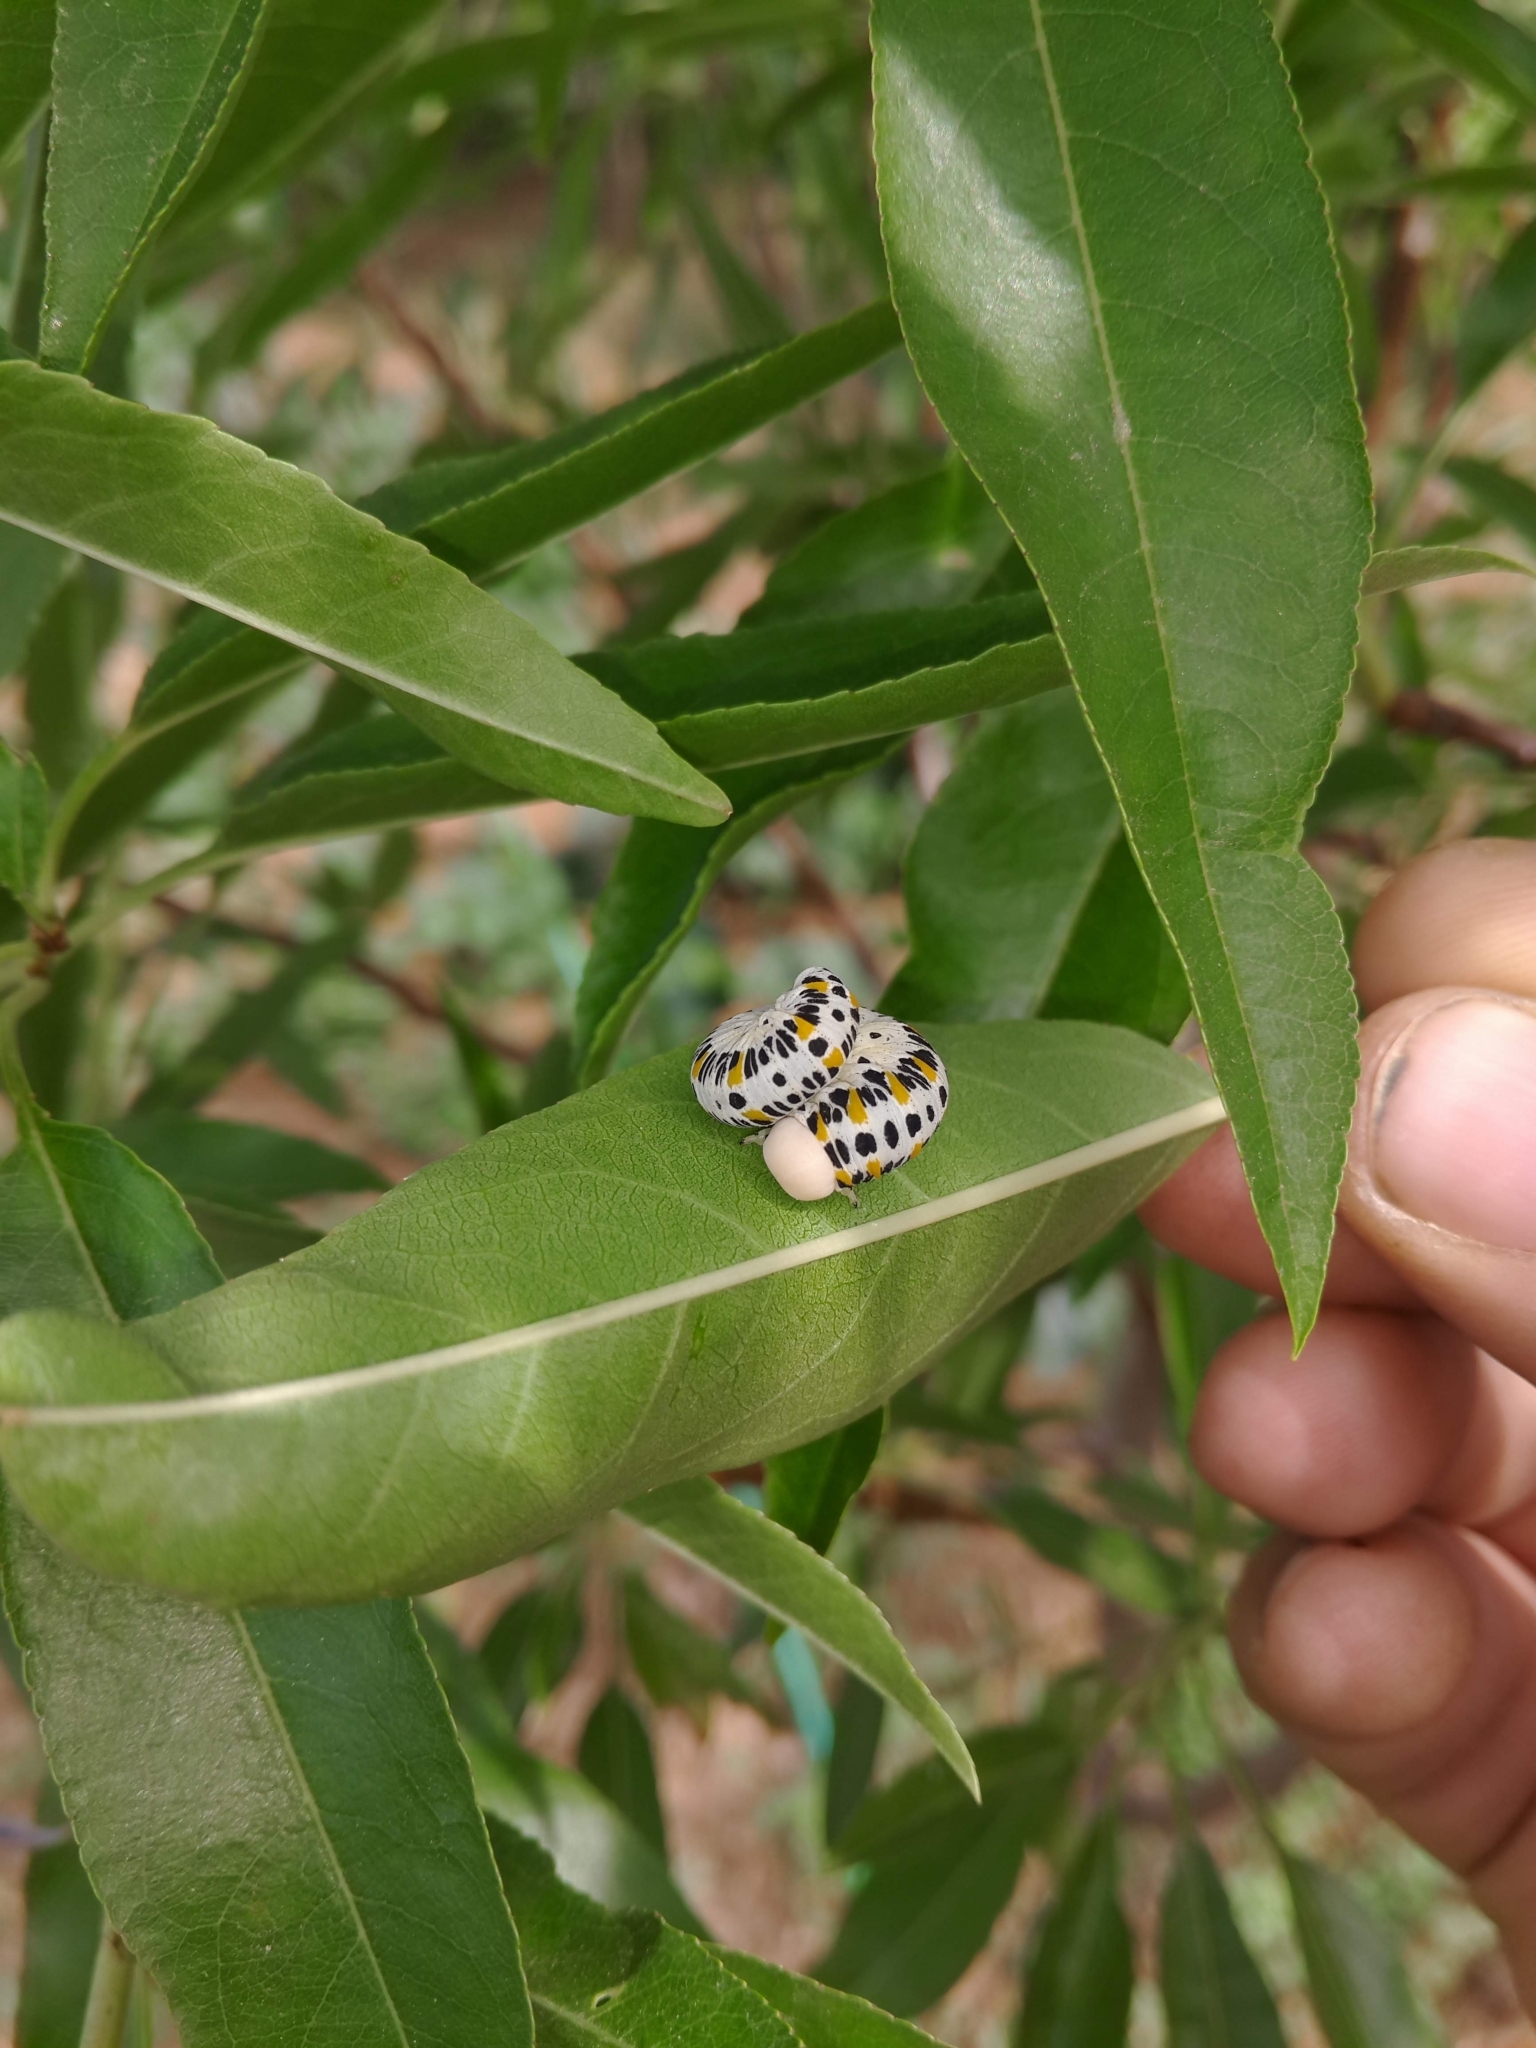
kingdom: Animalia
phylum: Arthropoda
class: Insecta
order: Hymenoptera
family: Cimbicidae
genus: Cimbex
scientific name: Cimbex quadrimaculatus
